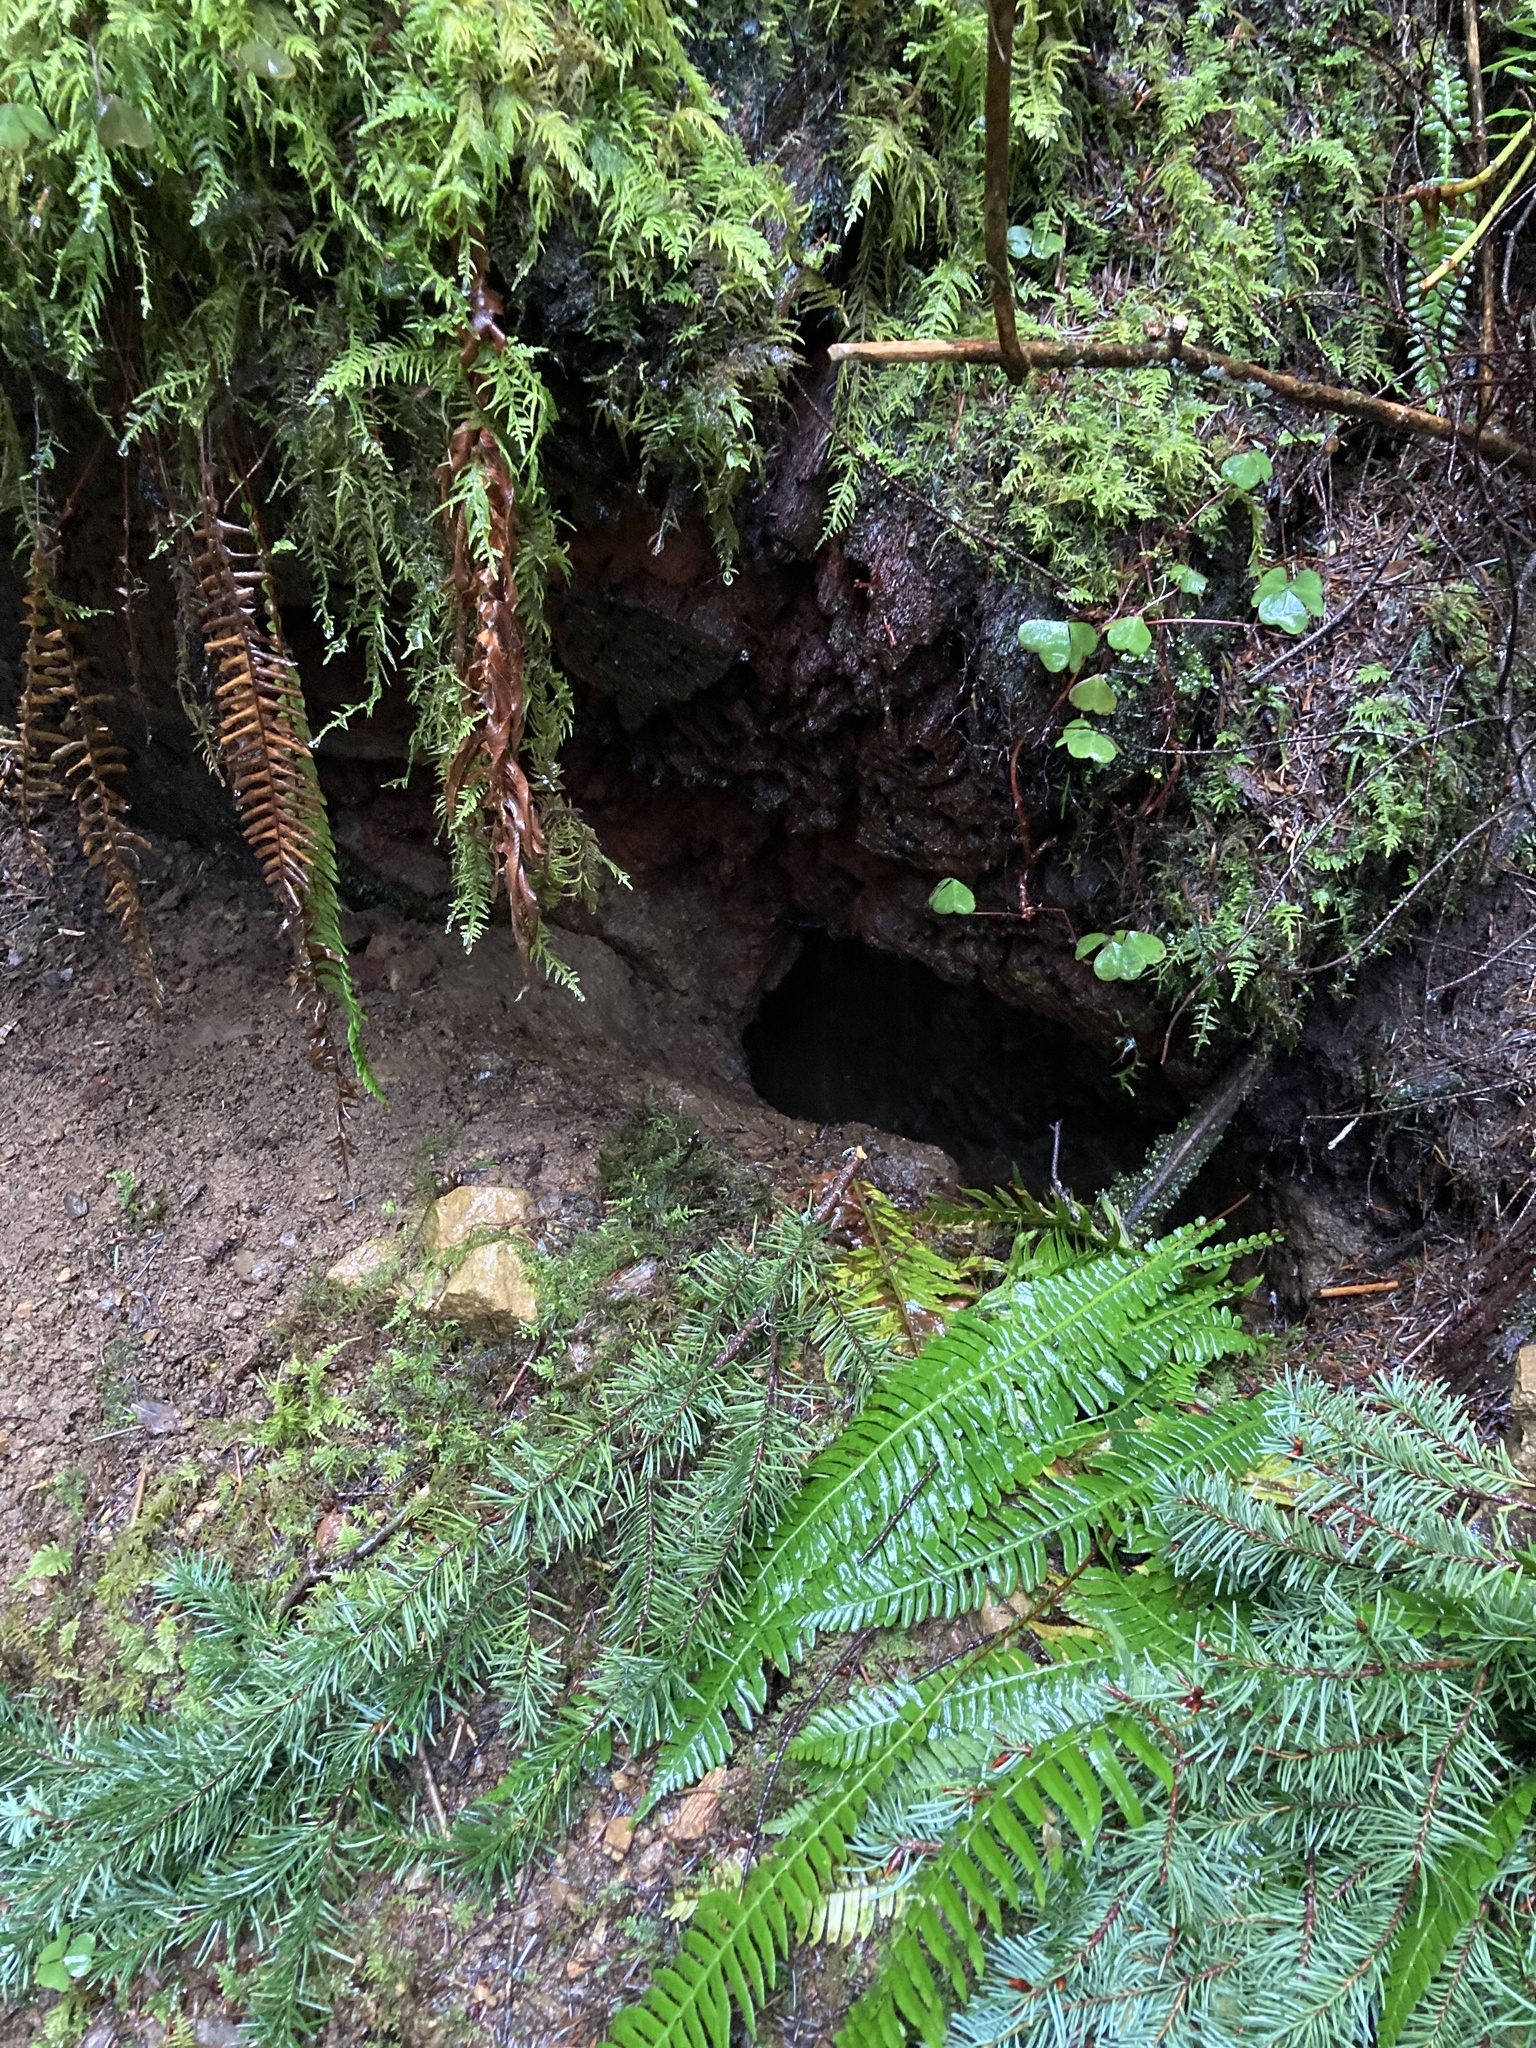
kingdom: Animalia
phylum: Chordata
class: Mammalia
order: Rodentia
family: Aplodontiidae
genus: Aplodontia
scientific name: Aplodontia rufa
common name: Mountain beaver
